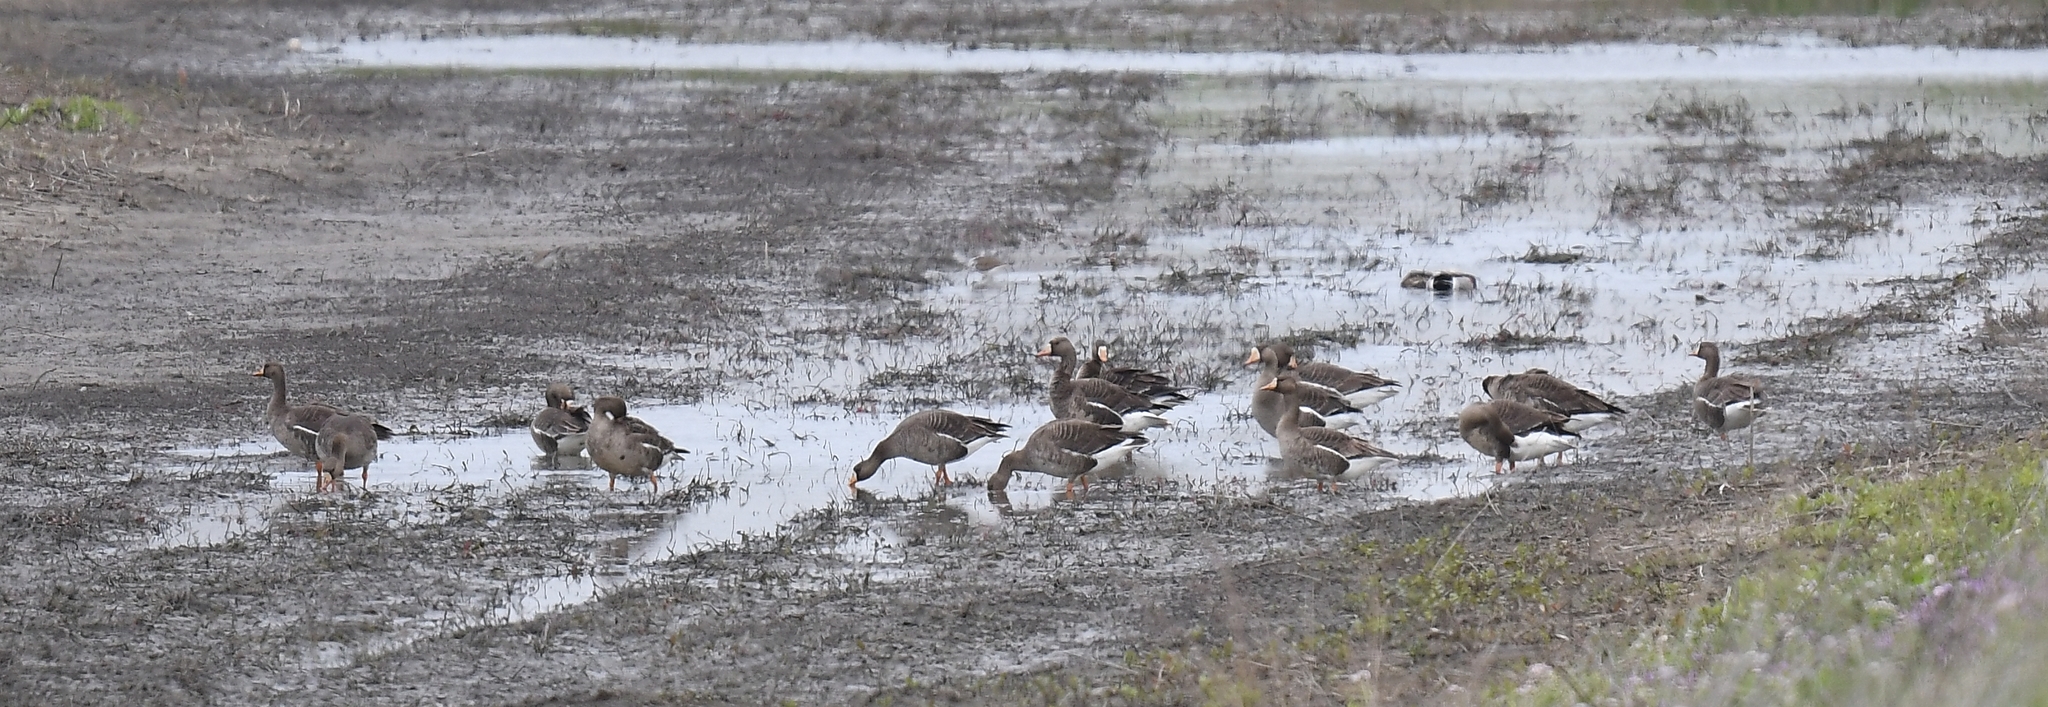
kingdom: Animalia
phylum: Chordata
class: Aves
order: Anseriformes
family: Anatidae
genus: Anser
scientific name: Anser albifrons
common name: Greater white-fronted goose
